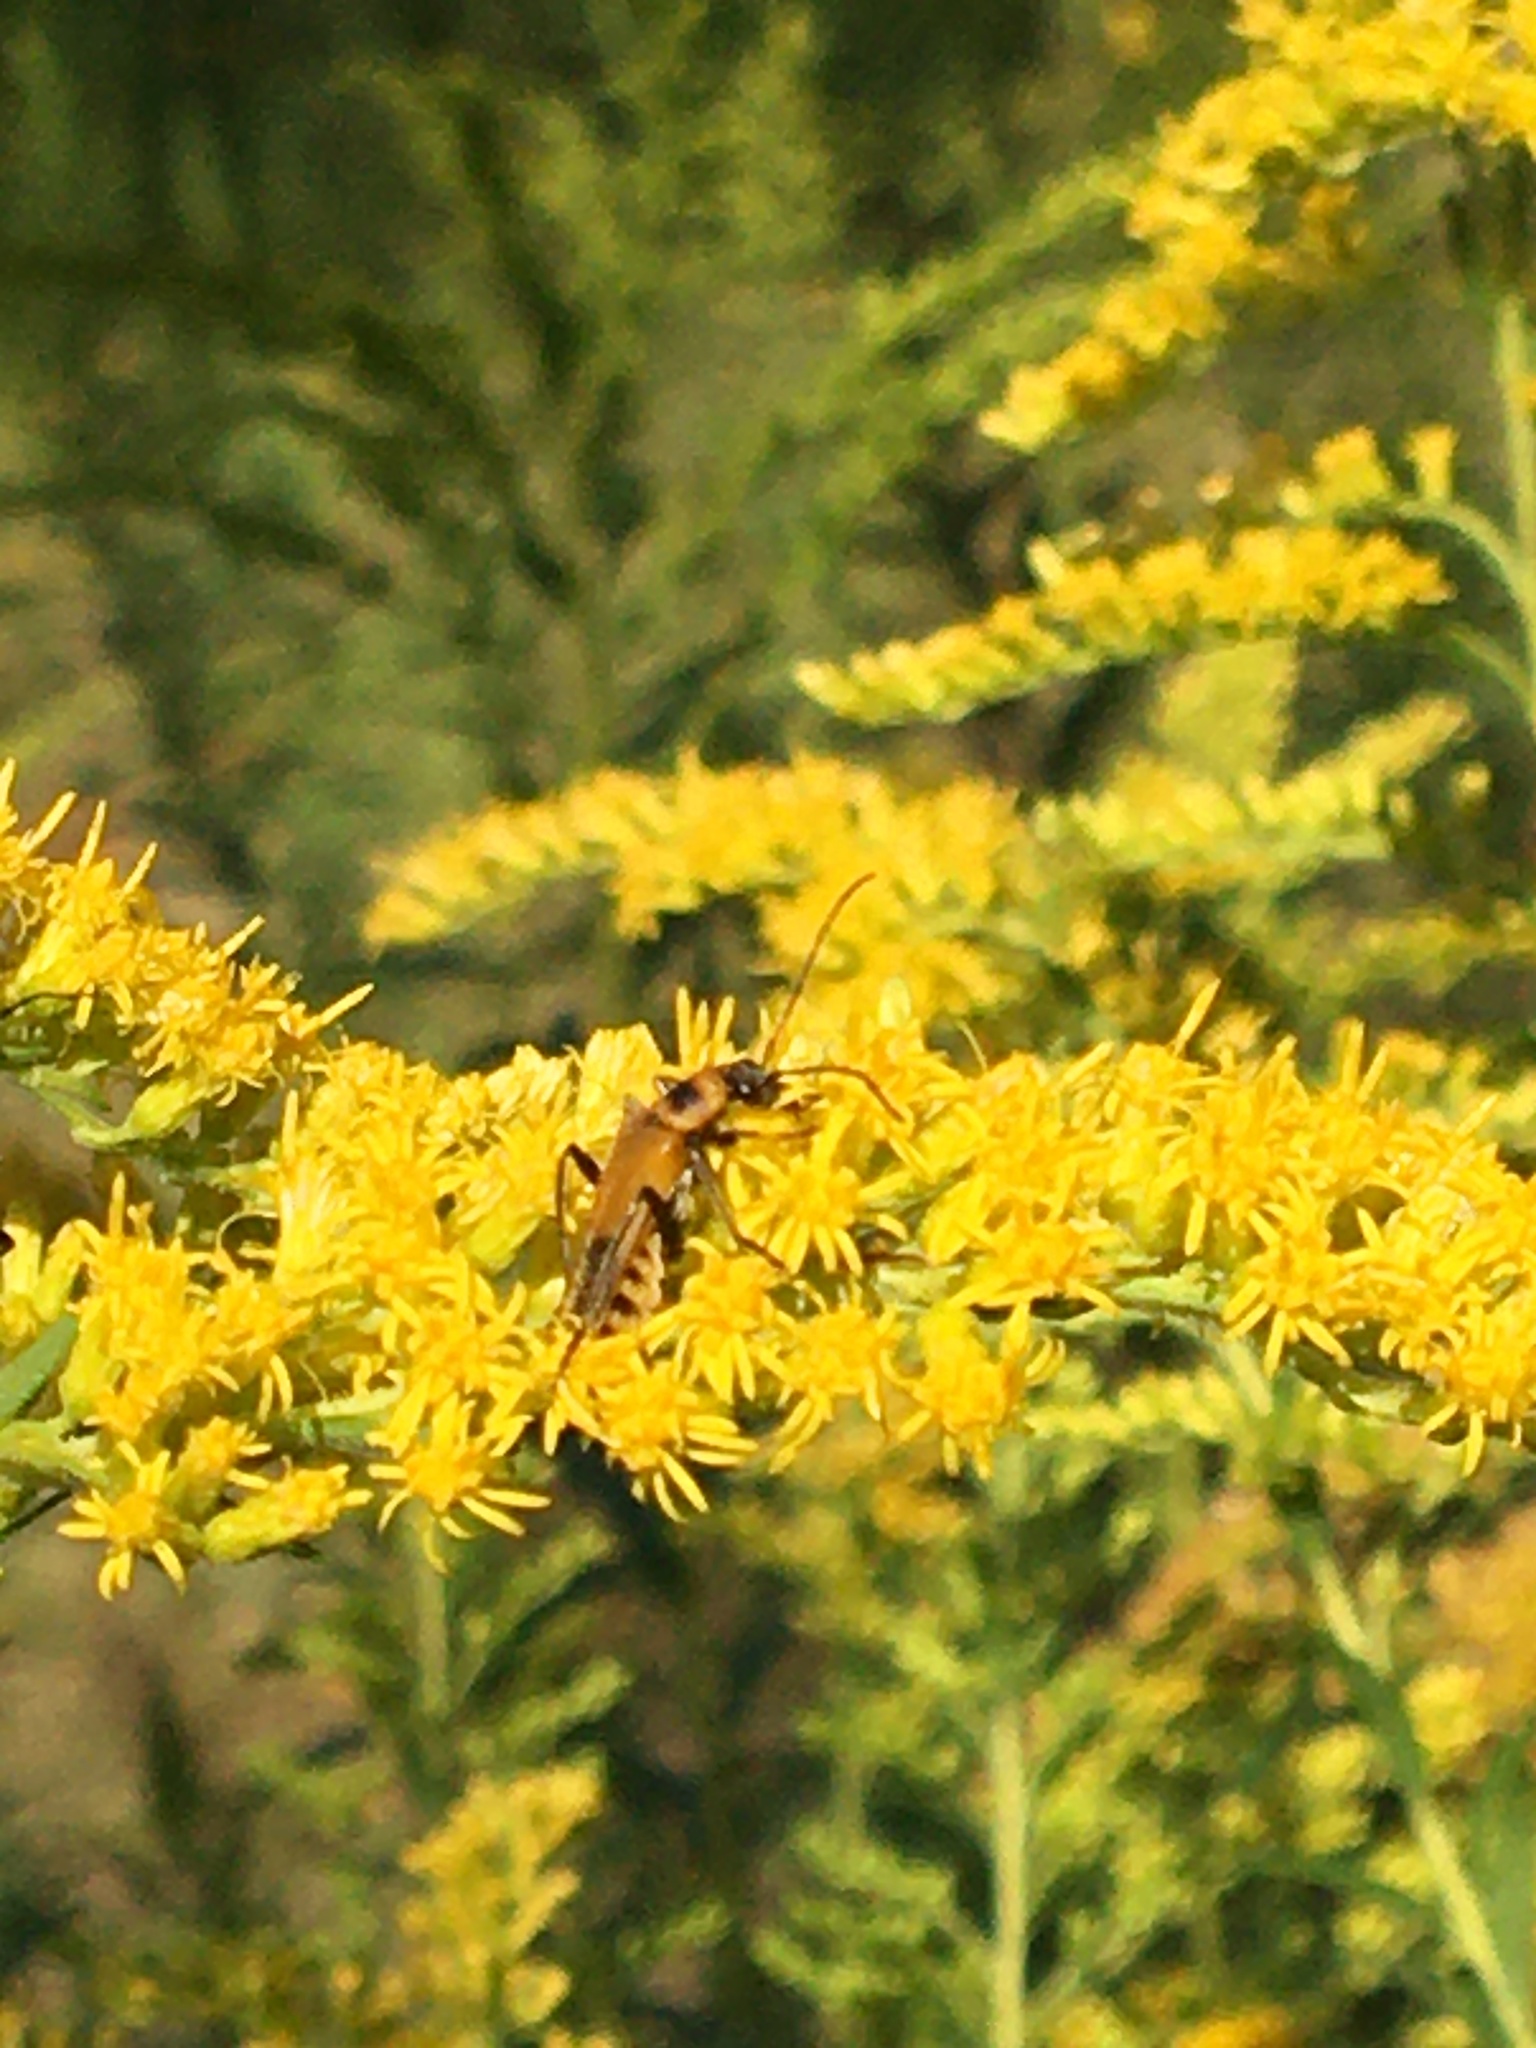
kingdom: Animalia
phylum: Arthropoda
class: Insecta
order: Coleoptera
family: Cantharidae
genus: Chauliognathus
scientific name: Chauliognathus pensylvanicus
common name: Goldenrod soldier beetle
